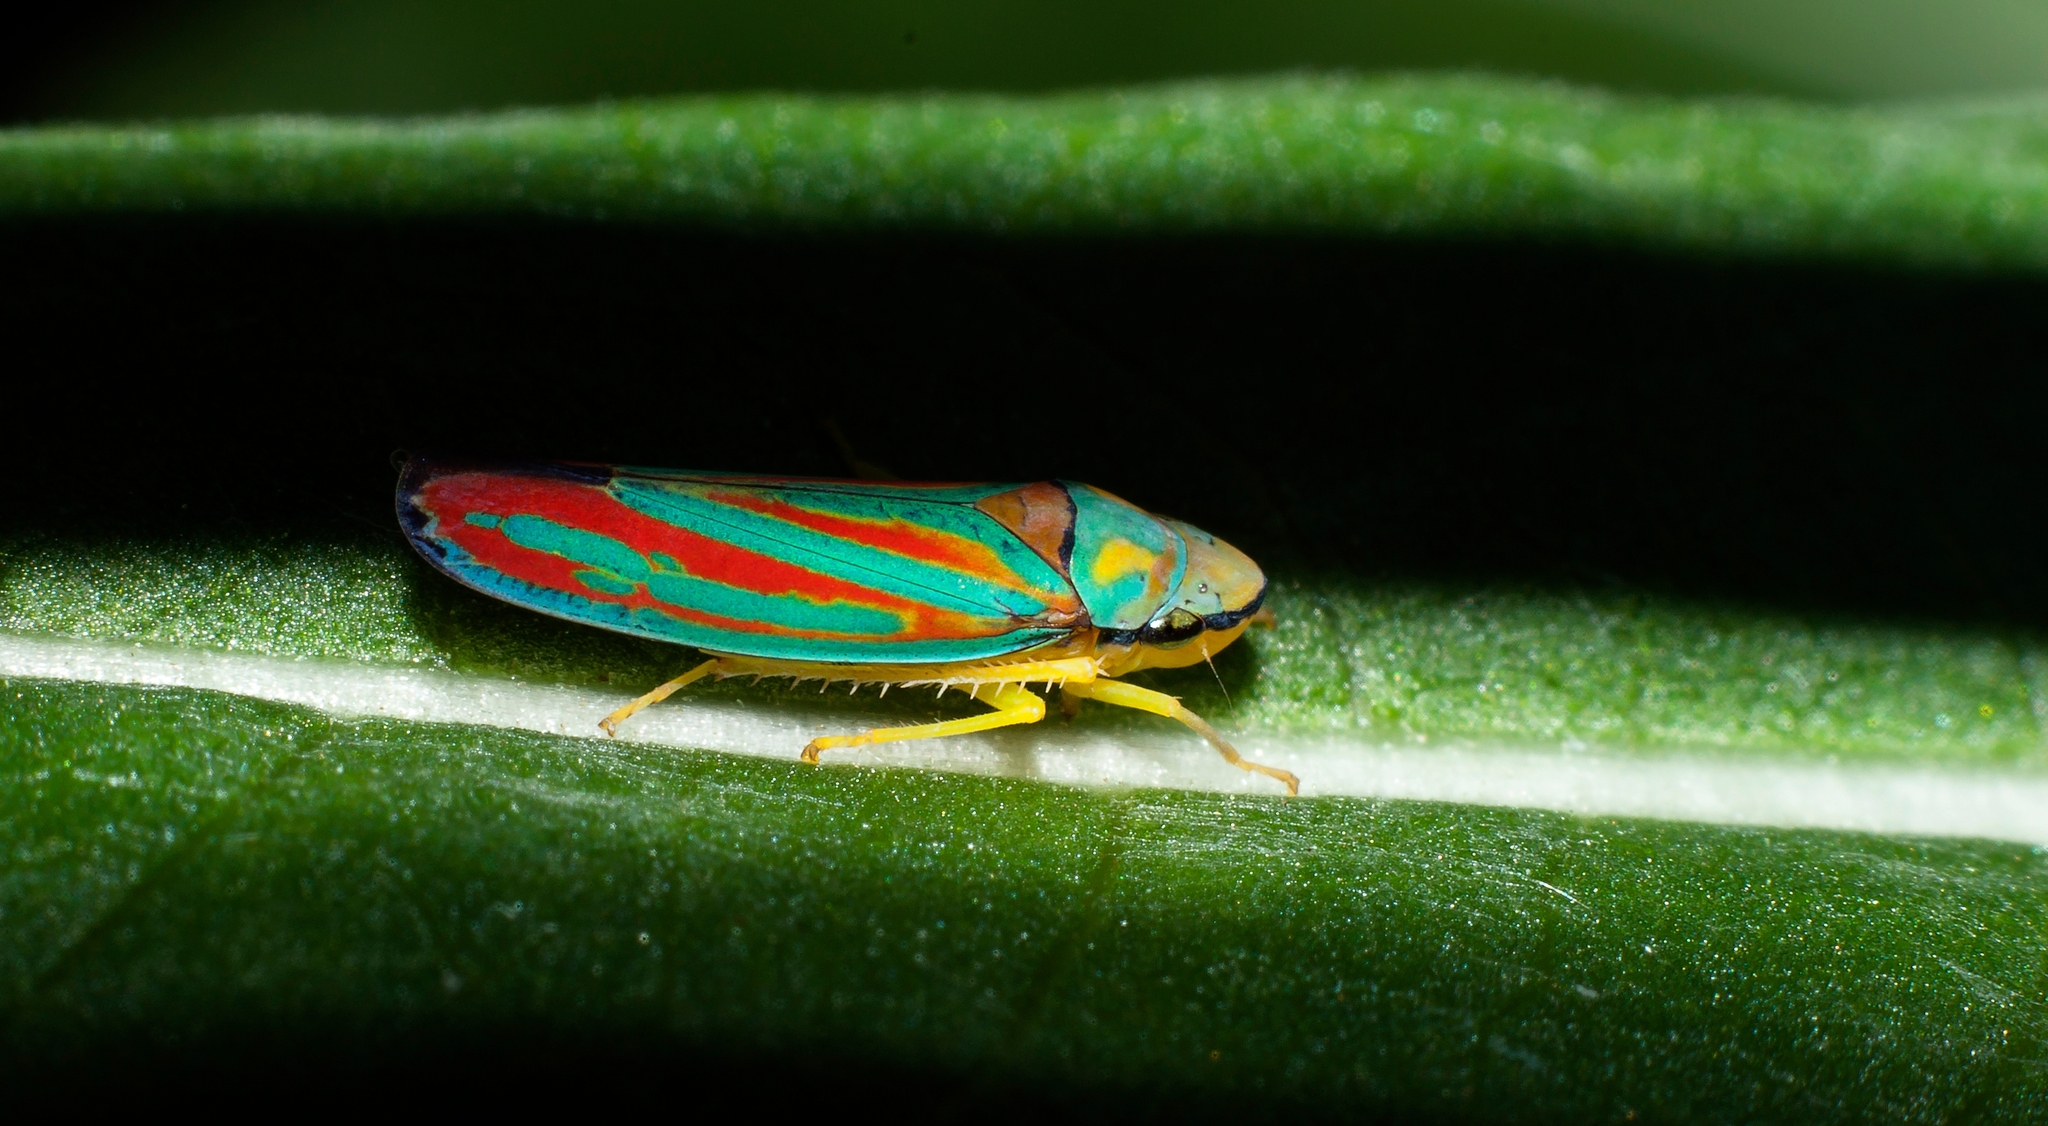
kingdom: Animalia
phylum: Arthropoda
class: Insecta
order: Hemiptera
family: Cicadellidae
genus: Graphocephala
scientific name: Graphocephala coccinea
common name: Candy-striped leafhopper
